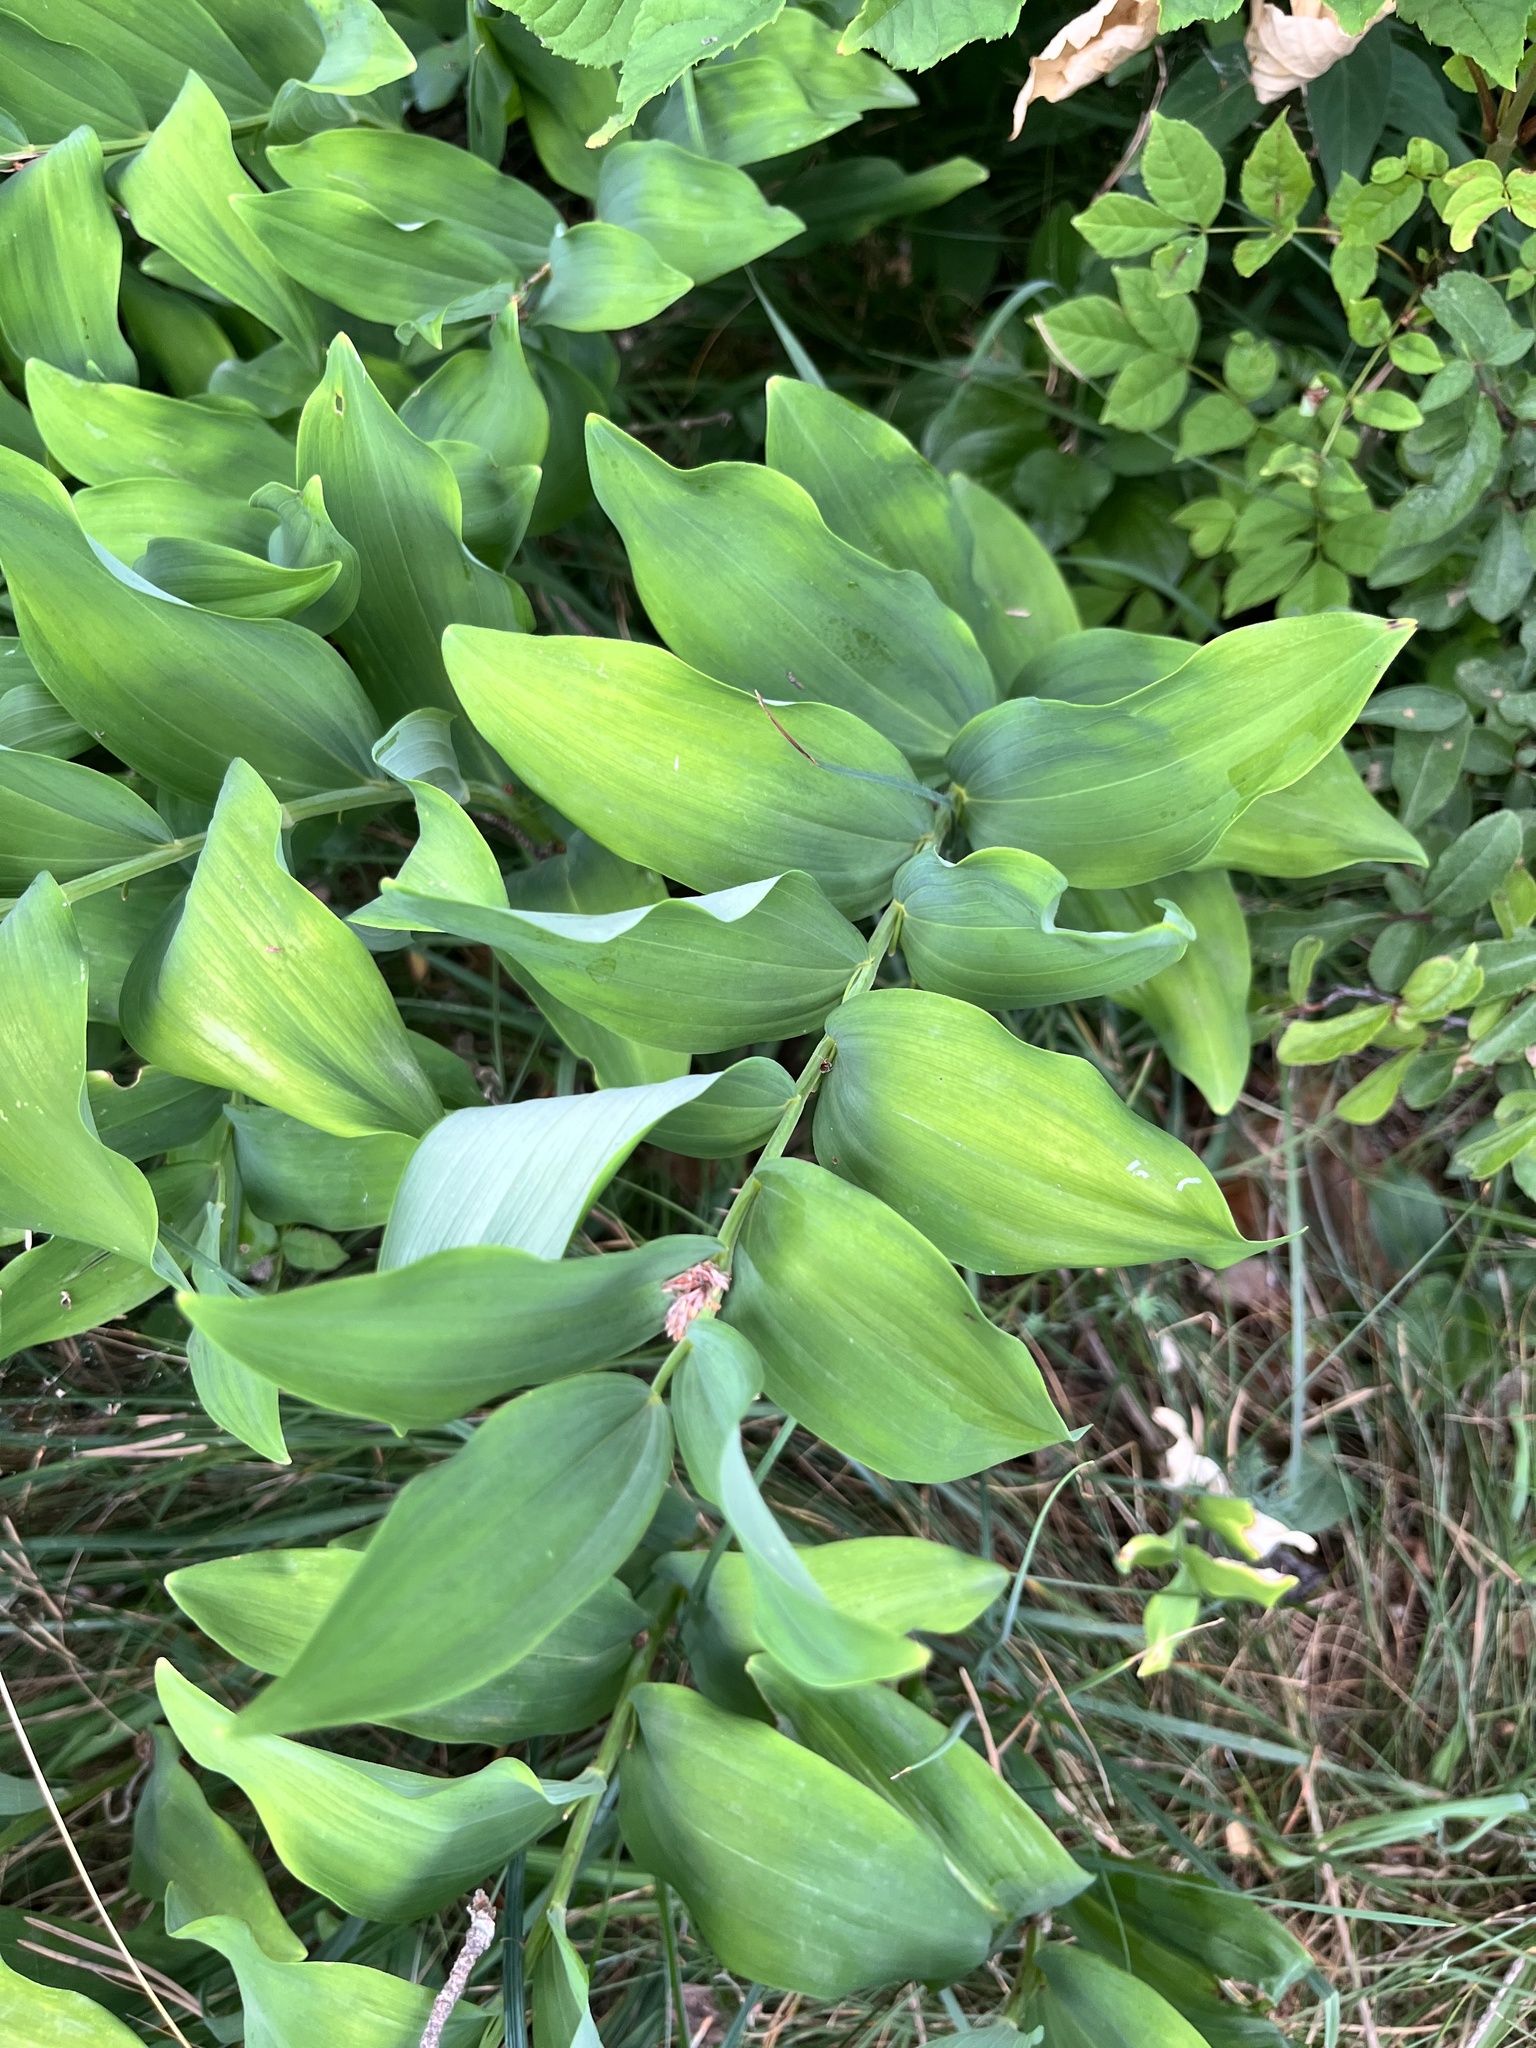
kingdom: Plantae
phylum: Tracheophyta
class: Liliopsida
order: Asparagales
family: Asparagaceae
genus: Polygonatum
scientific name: Polygonatum multiflorum
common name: Solomon's-seal
